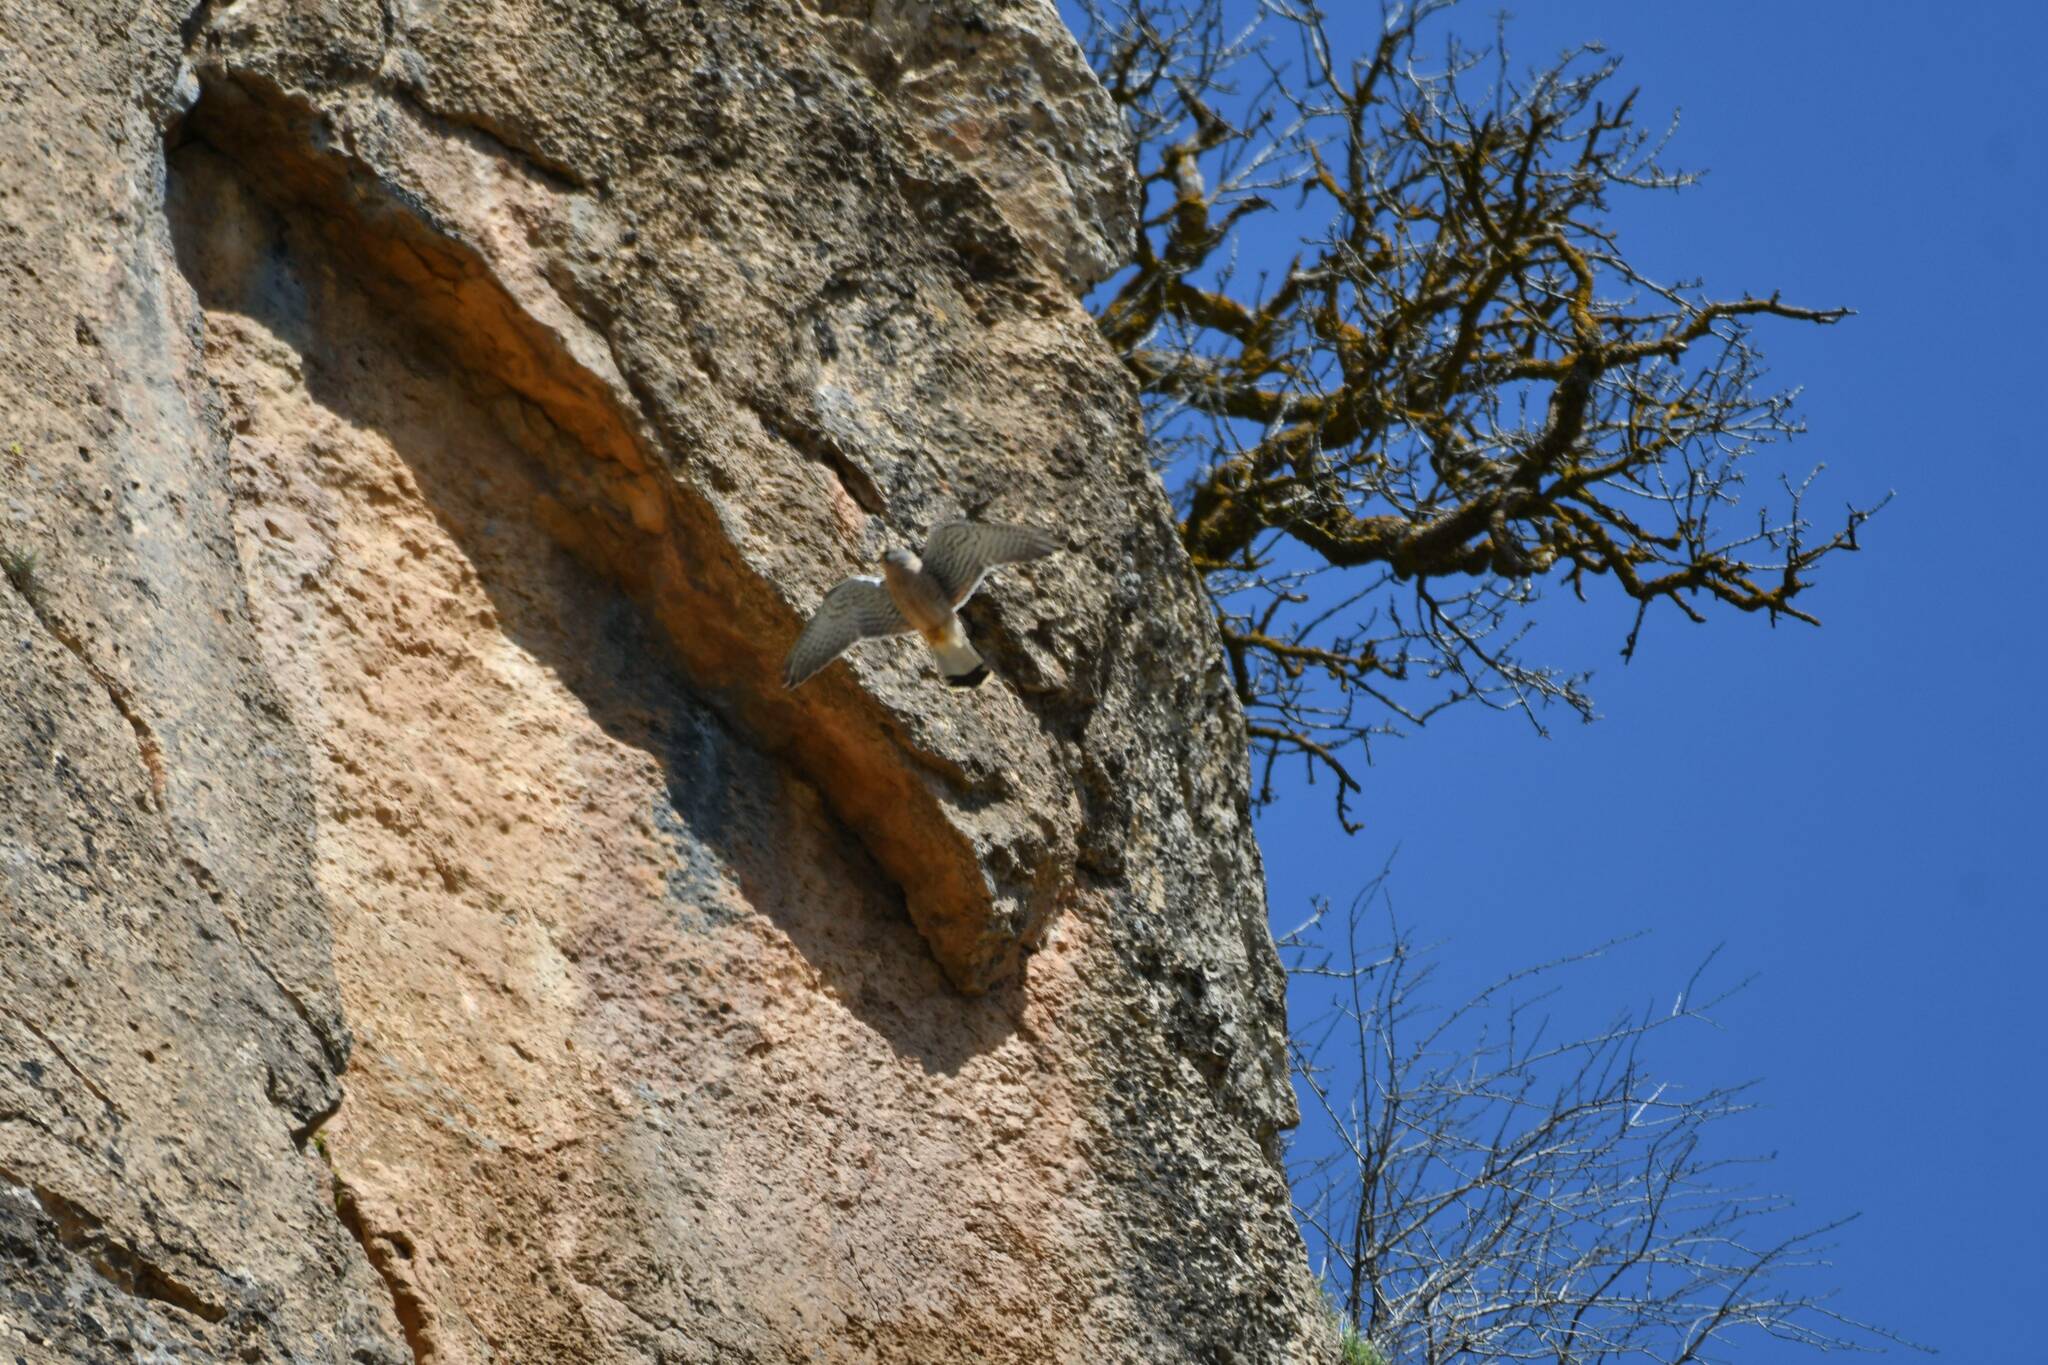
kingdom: Animalia
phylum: Chordata
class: Aves
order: Falconiformes
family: Falconidae
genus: Falco
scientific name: Falco naumanni
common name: Lesser kestrel
